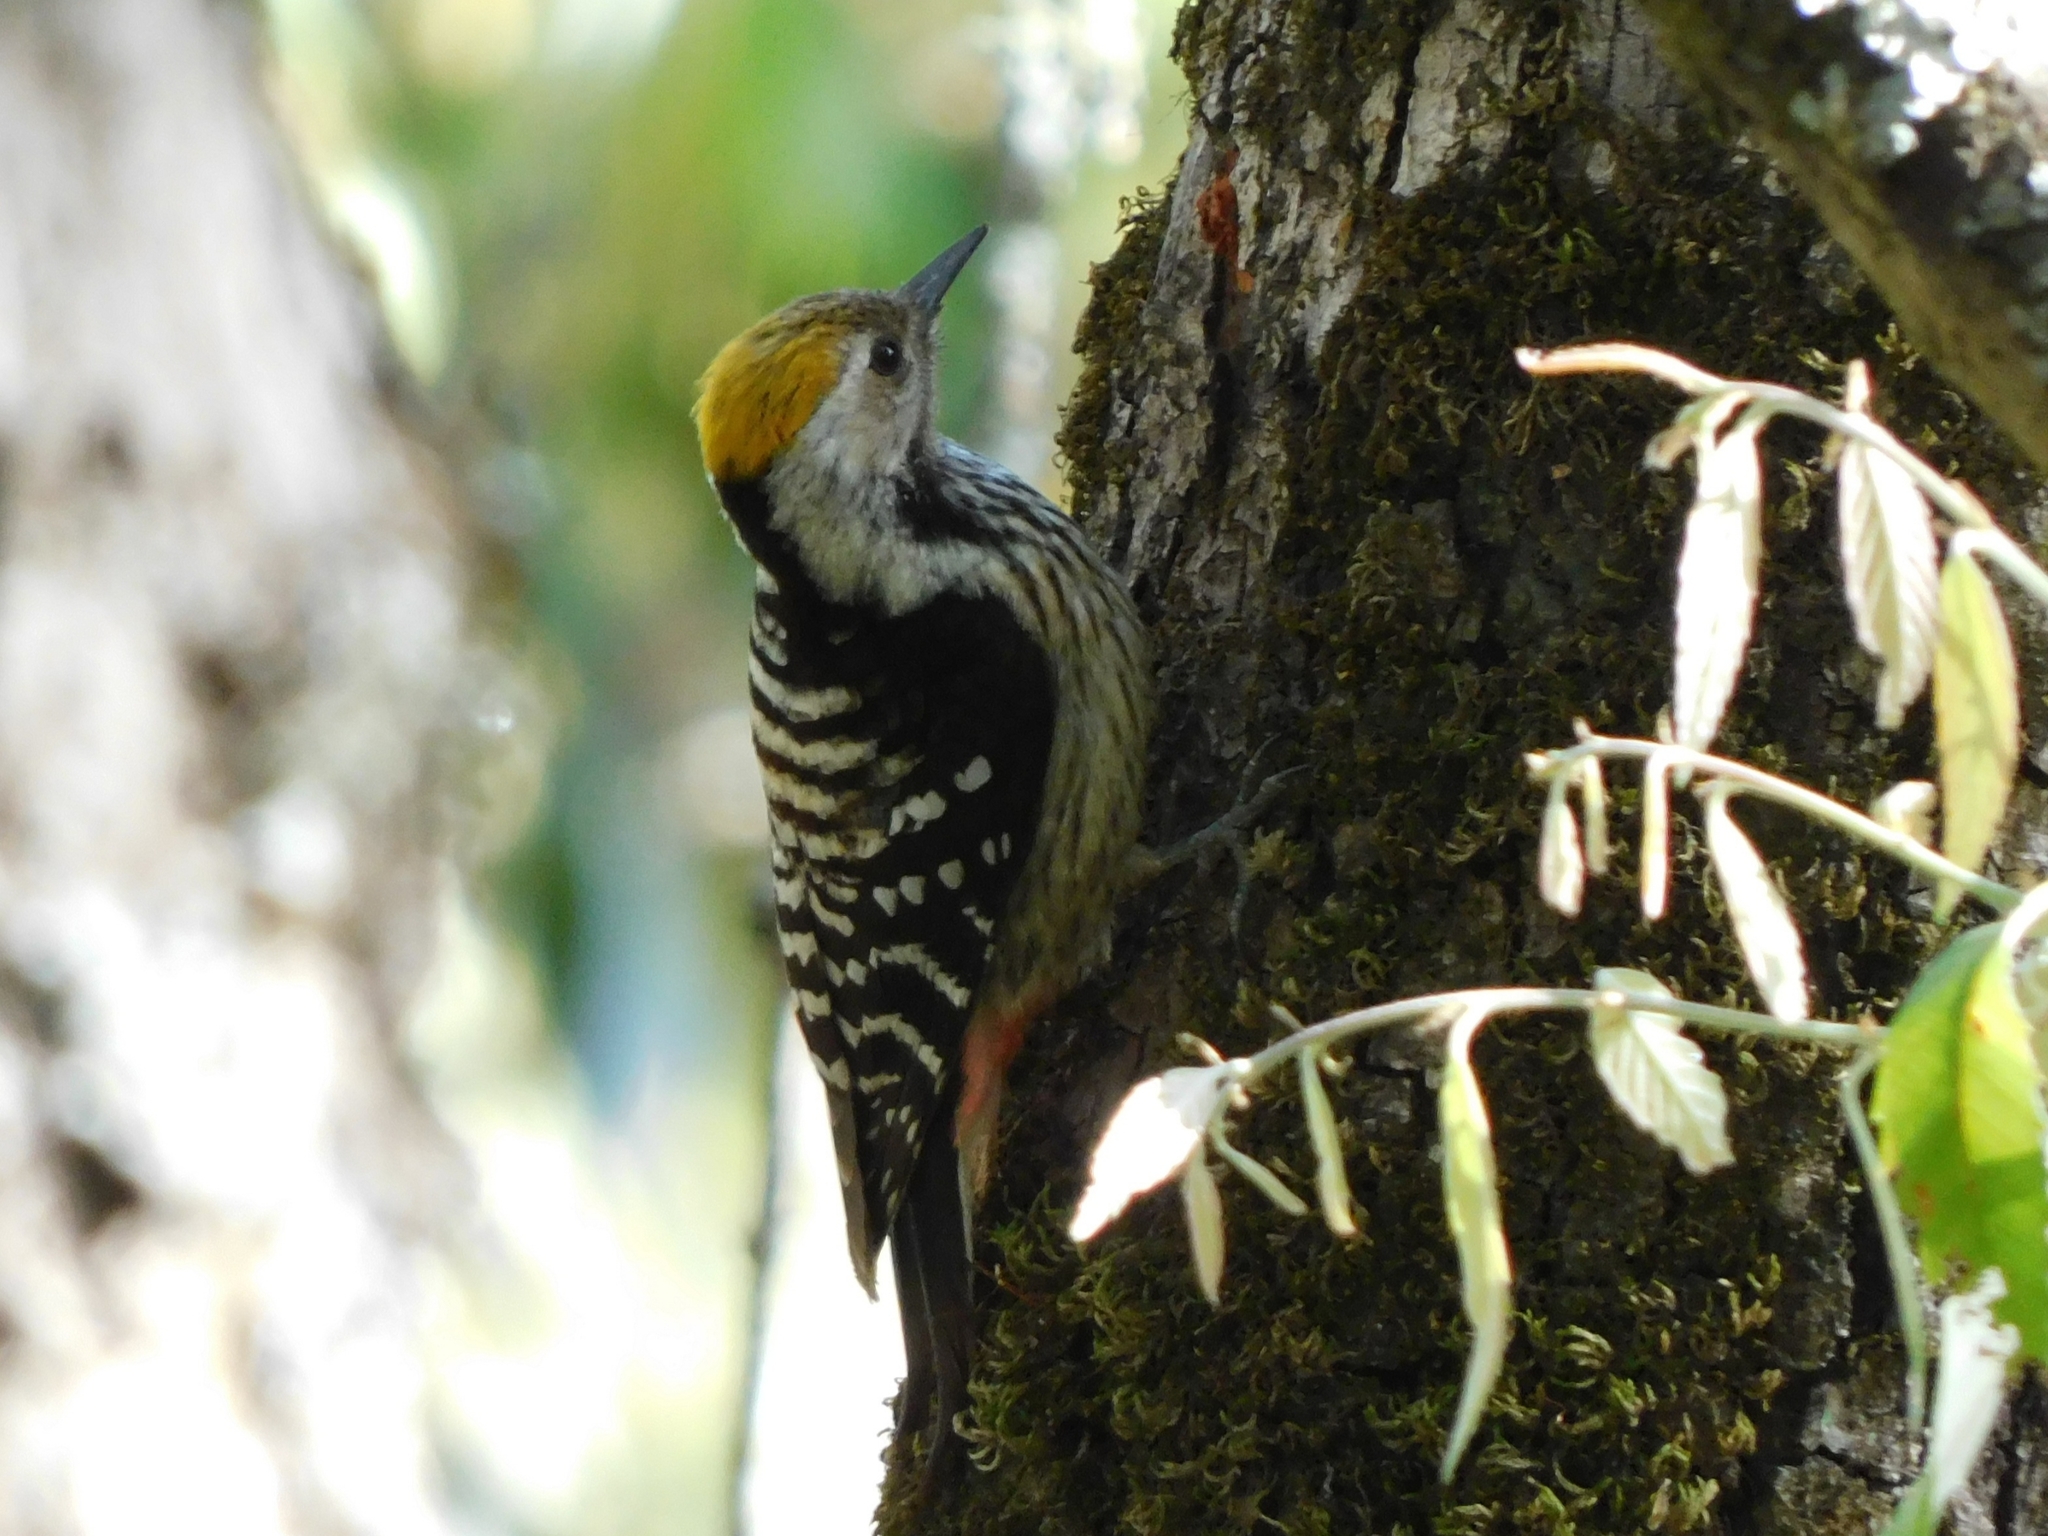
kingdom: Animalia
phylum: Chordata
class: Aves
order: Piciformes
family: Picidae
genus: Dendrocoptes
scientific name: Dendrocoptes auriceps
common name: Brown-fronted woodpecker
